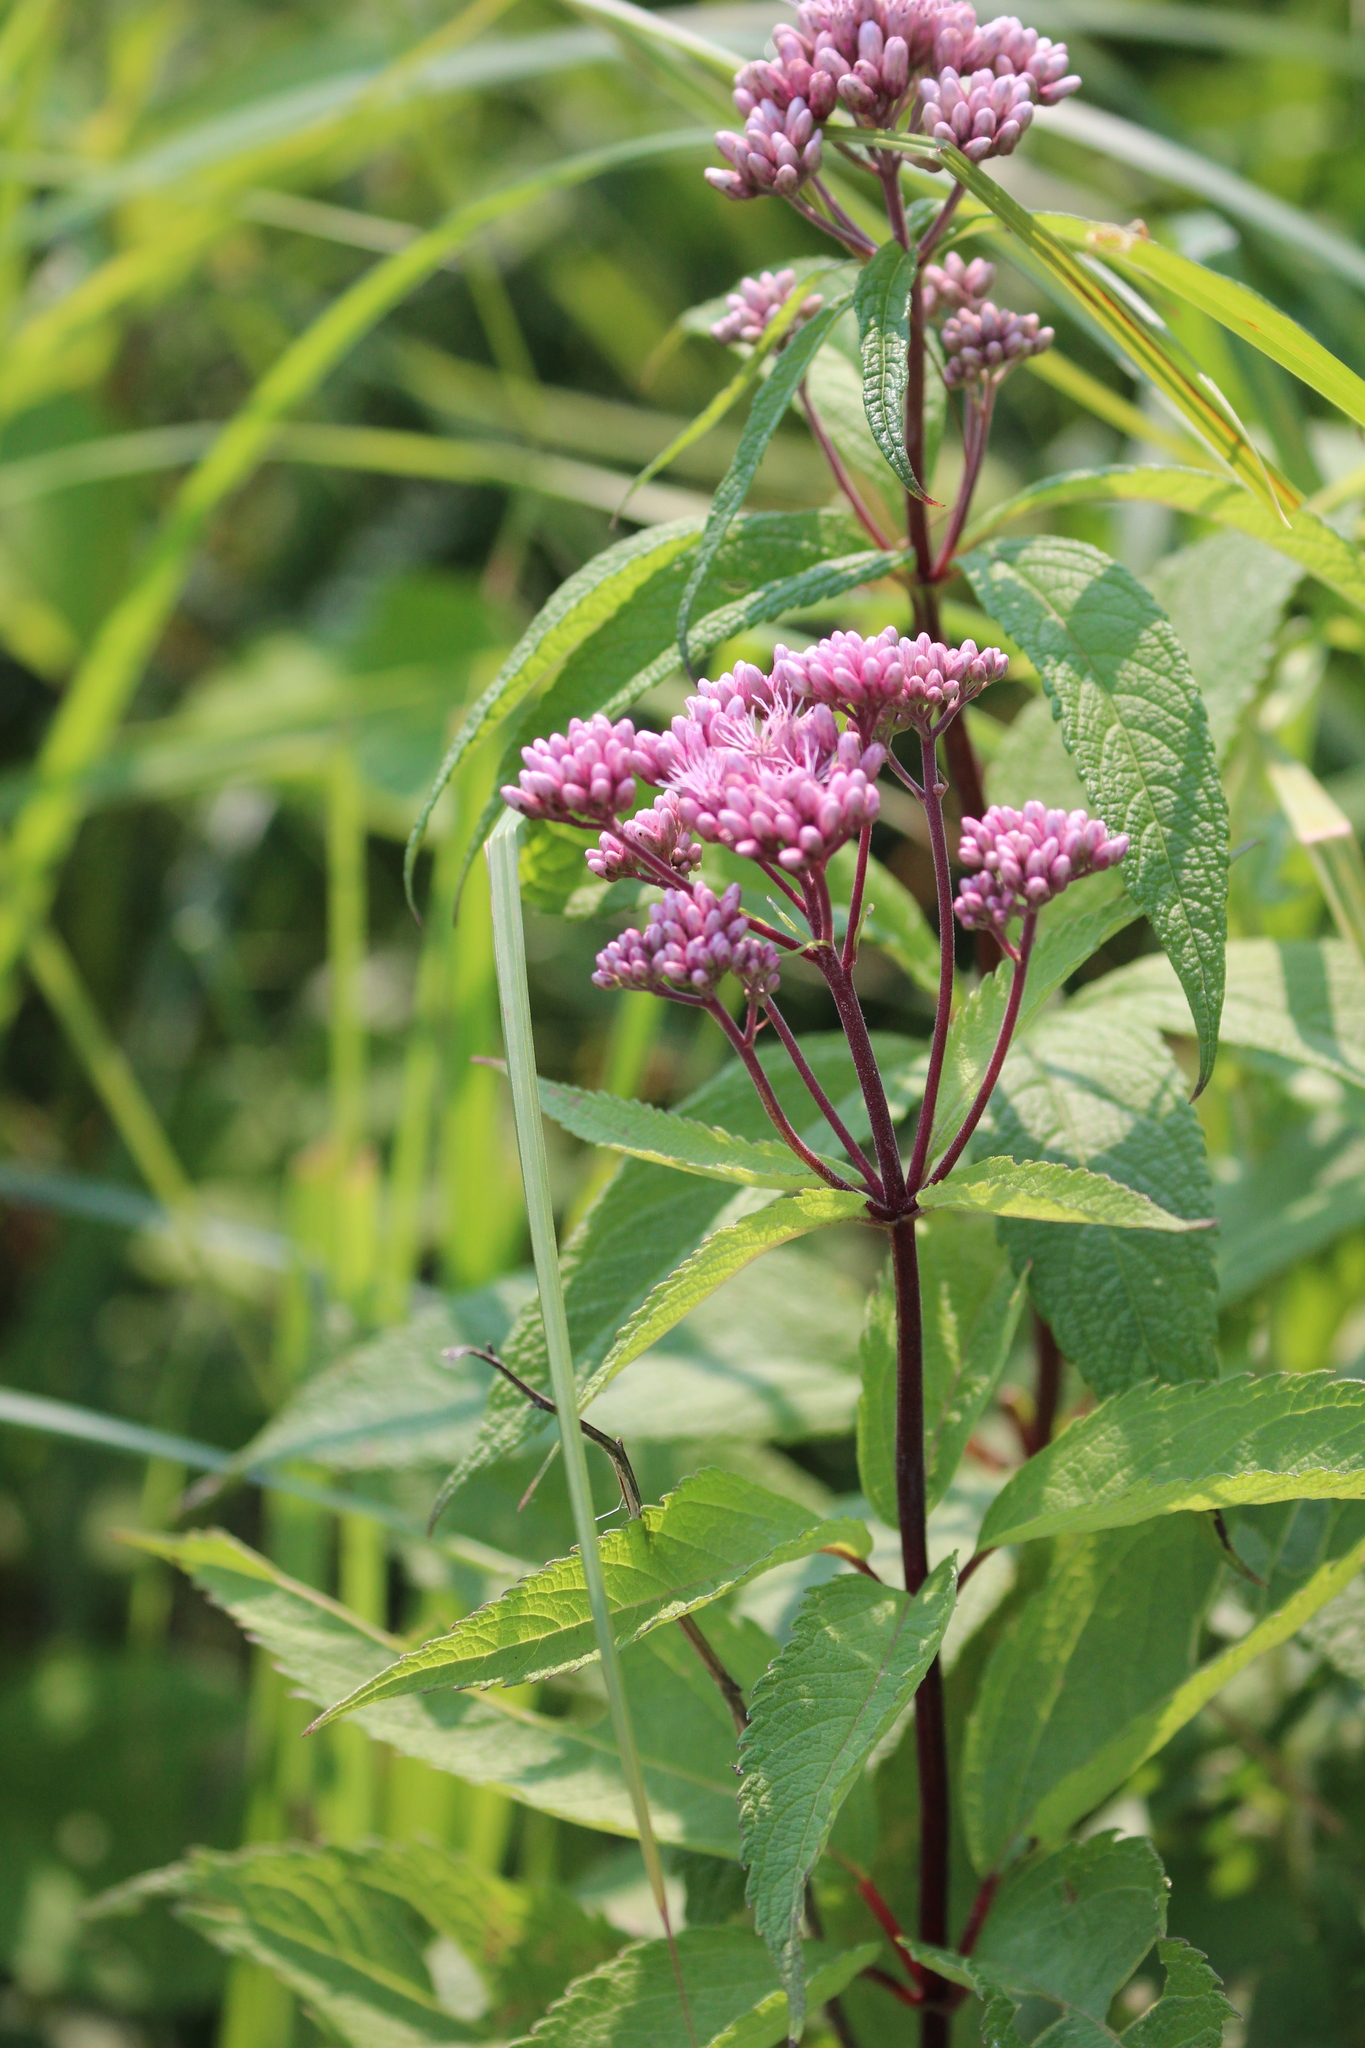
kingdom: Plantae
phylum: Tracheophyta
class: Magnoliopsida
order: Asterales
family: Asteraceae
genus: Eutrochium
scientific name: Eutrochium maculatum
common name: Spotted joe pye weed
